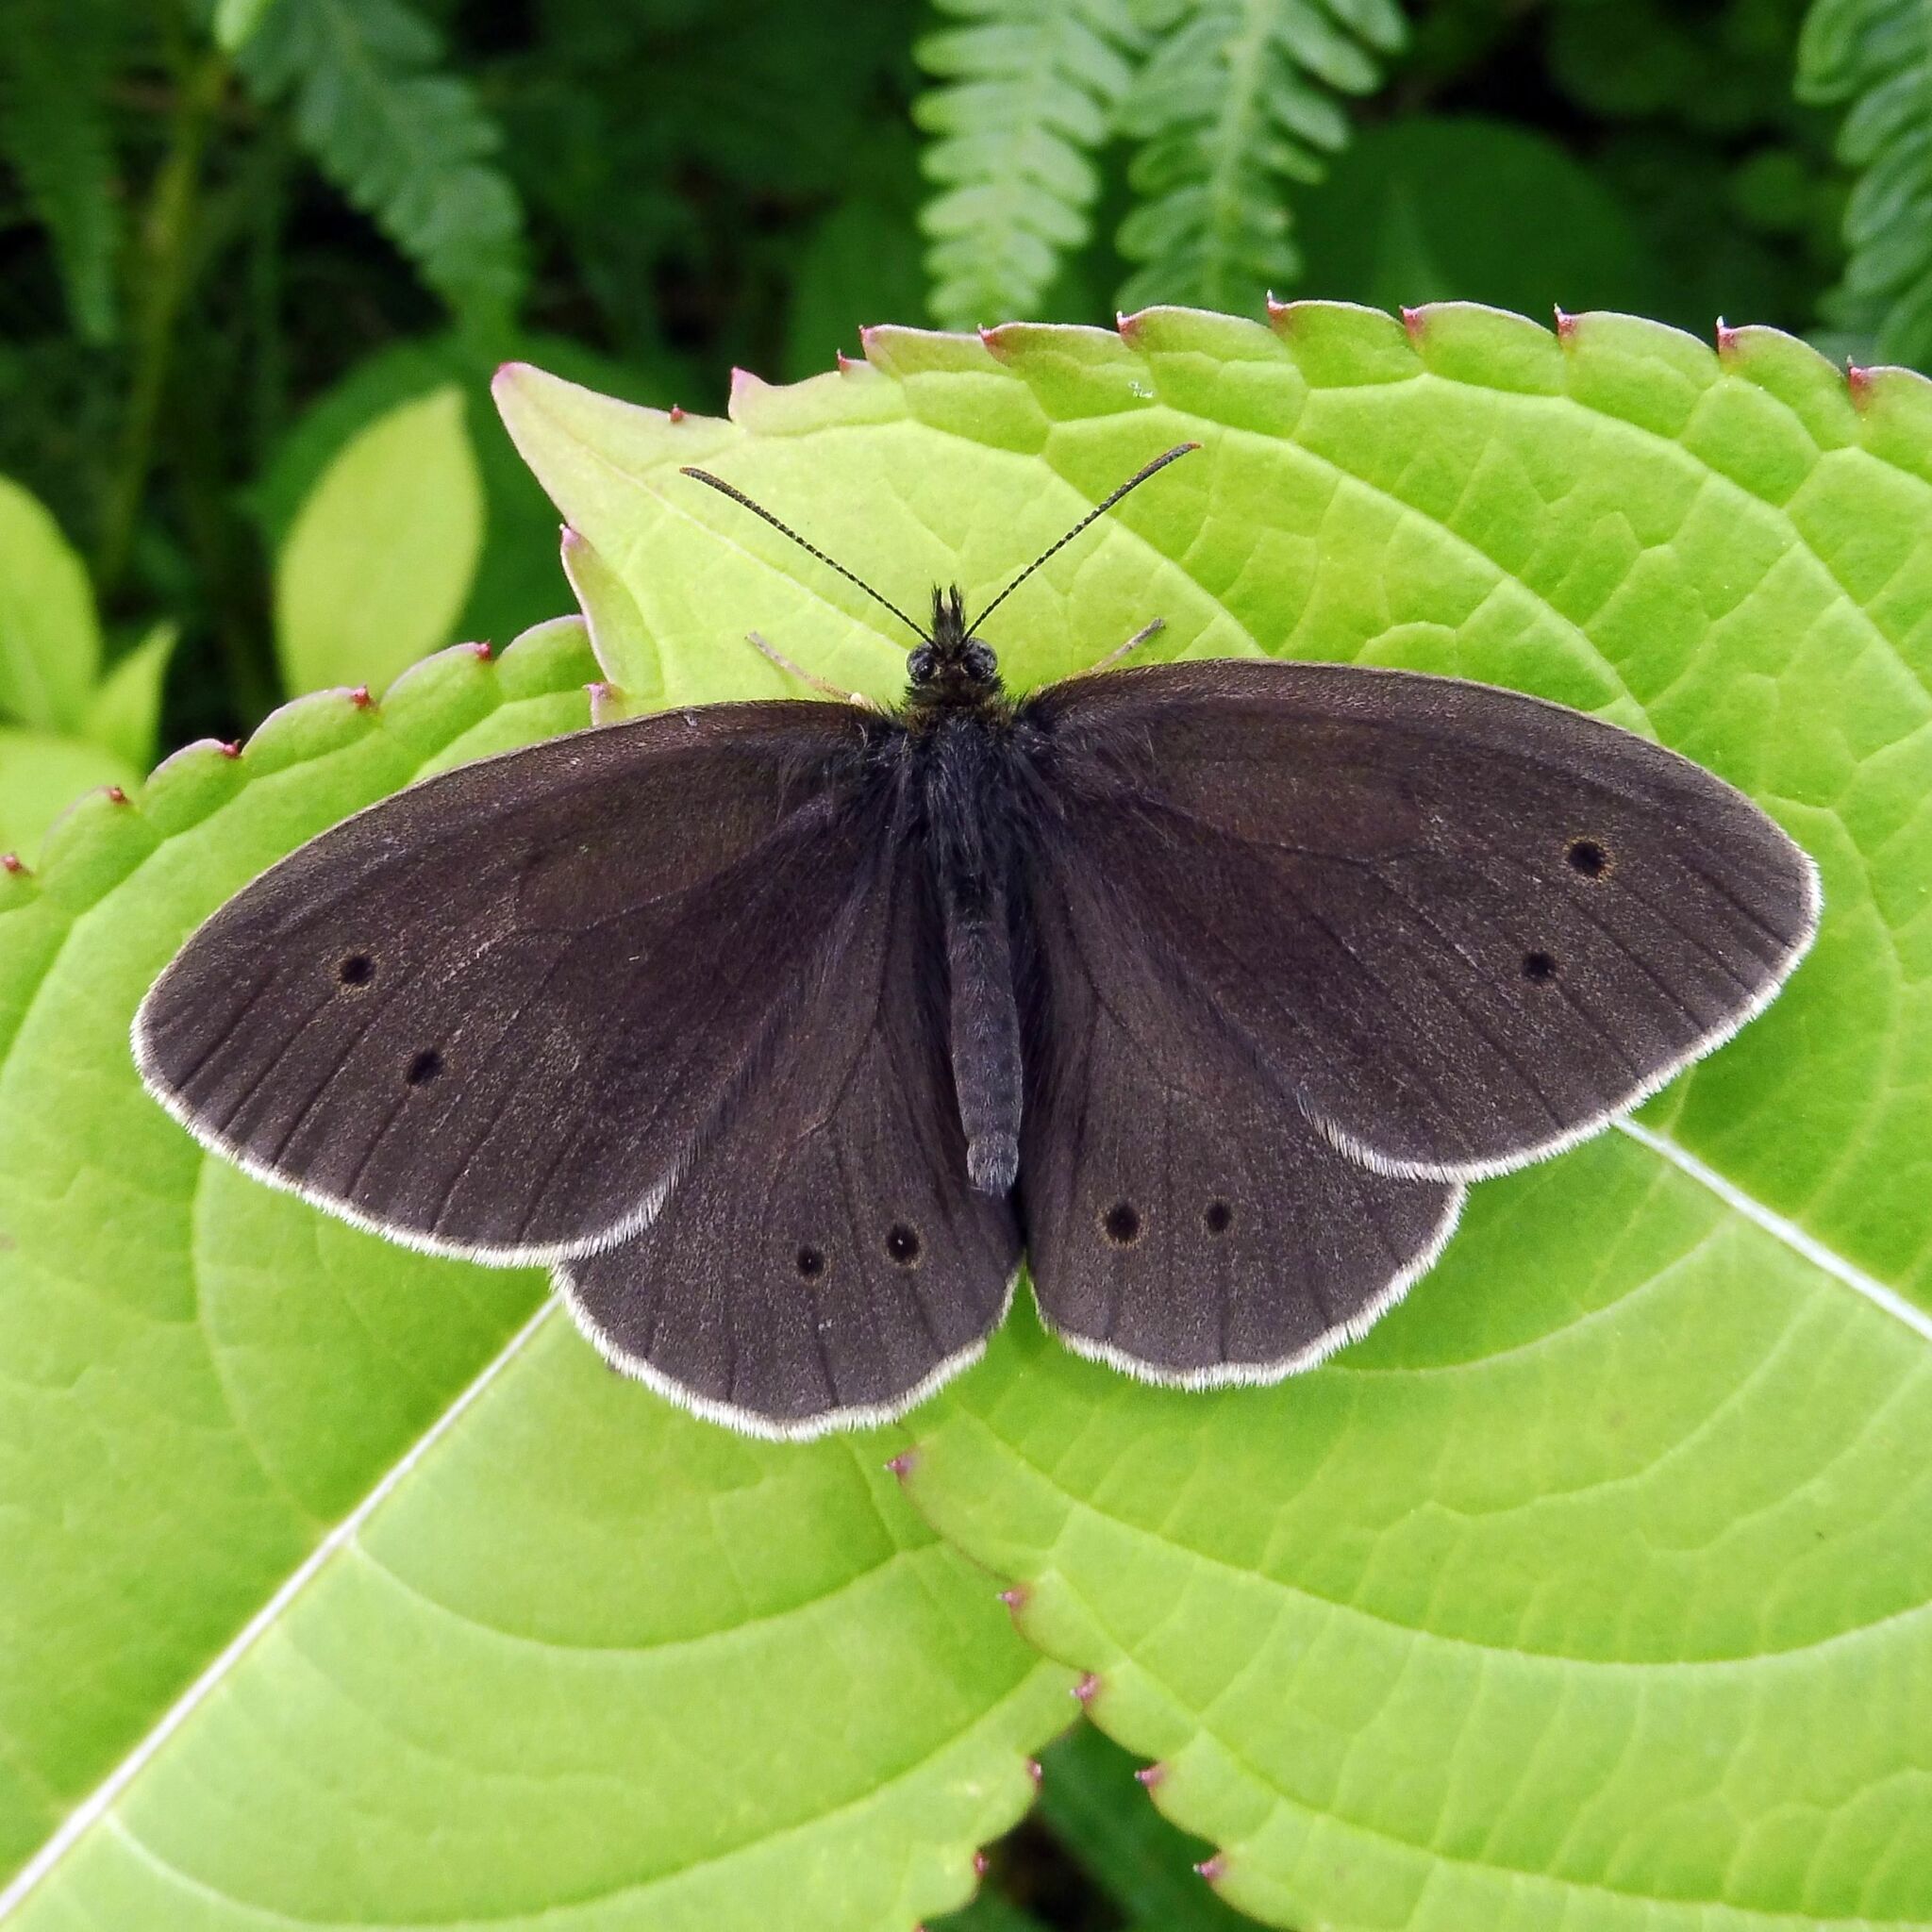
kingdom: Animalia
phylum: Arthropoda
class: Insecta
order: Lepidoptera
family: Nymphalidae
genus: Aphantopus
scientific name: Aphantopus hyperantus
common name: Ringlet
